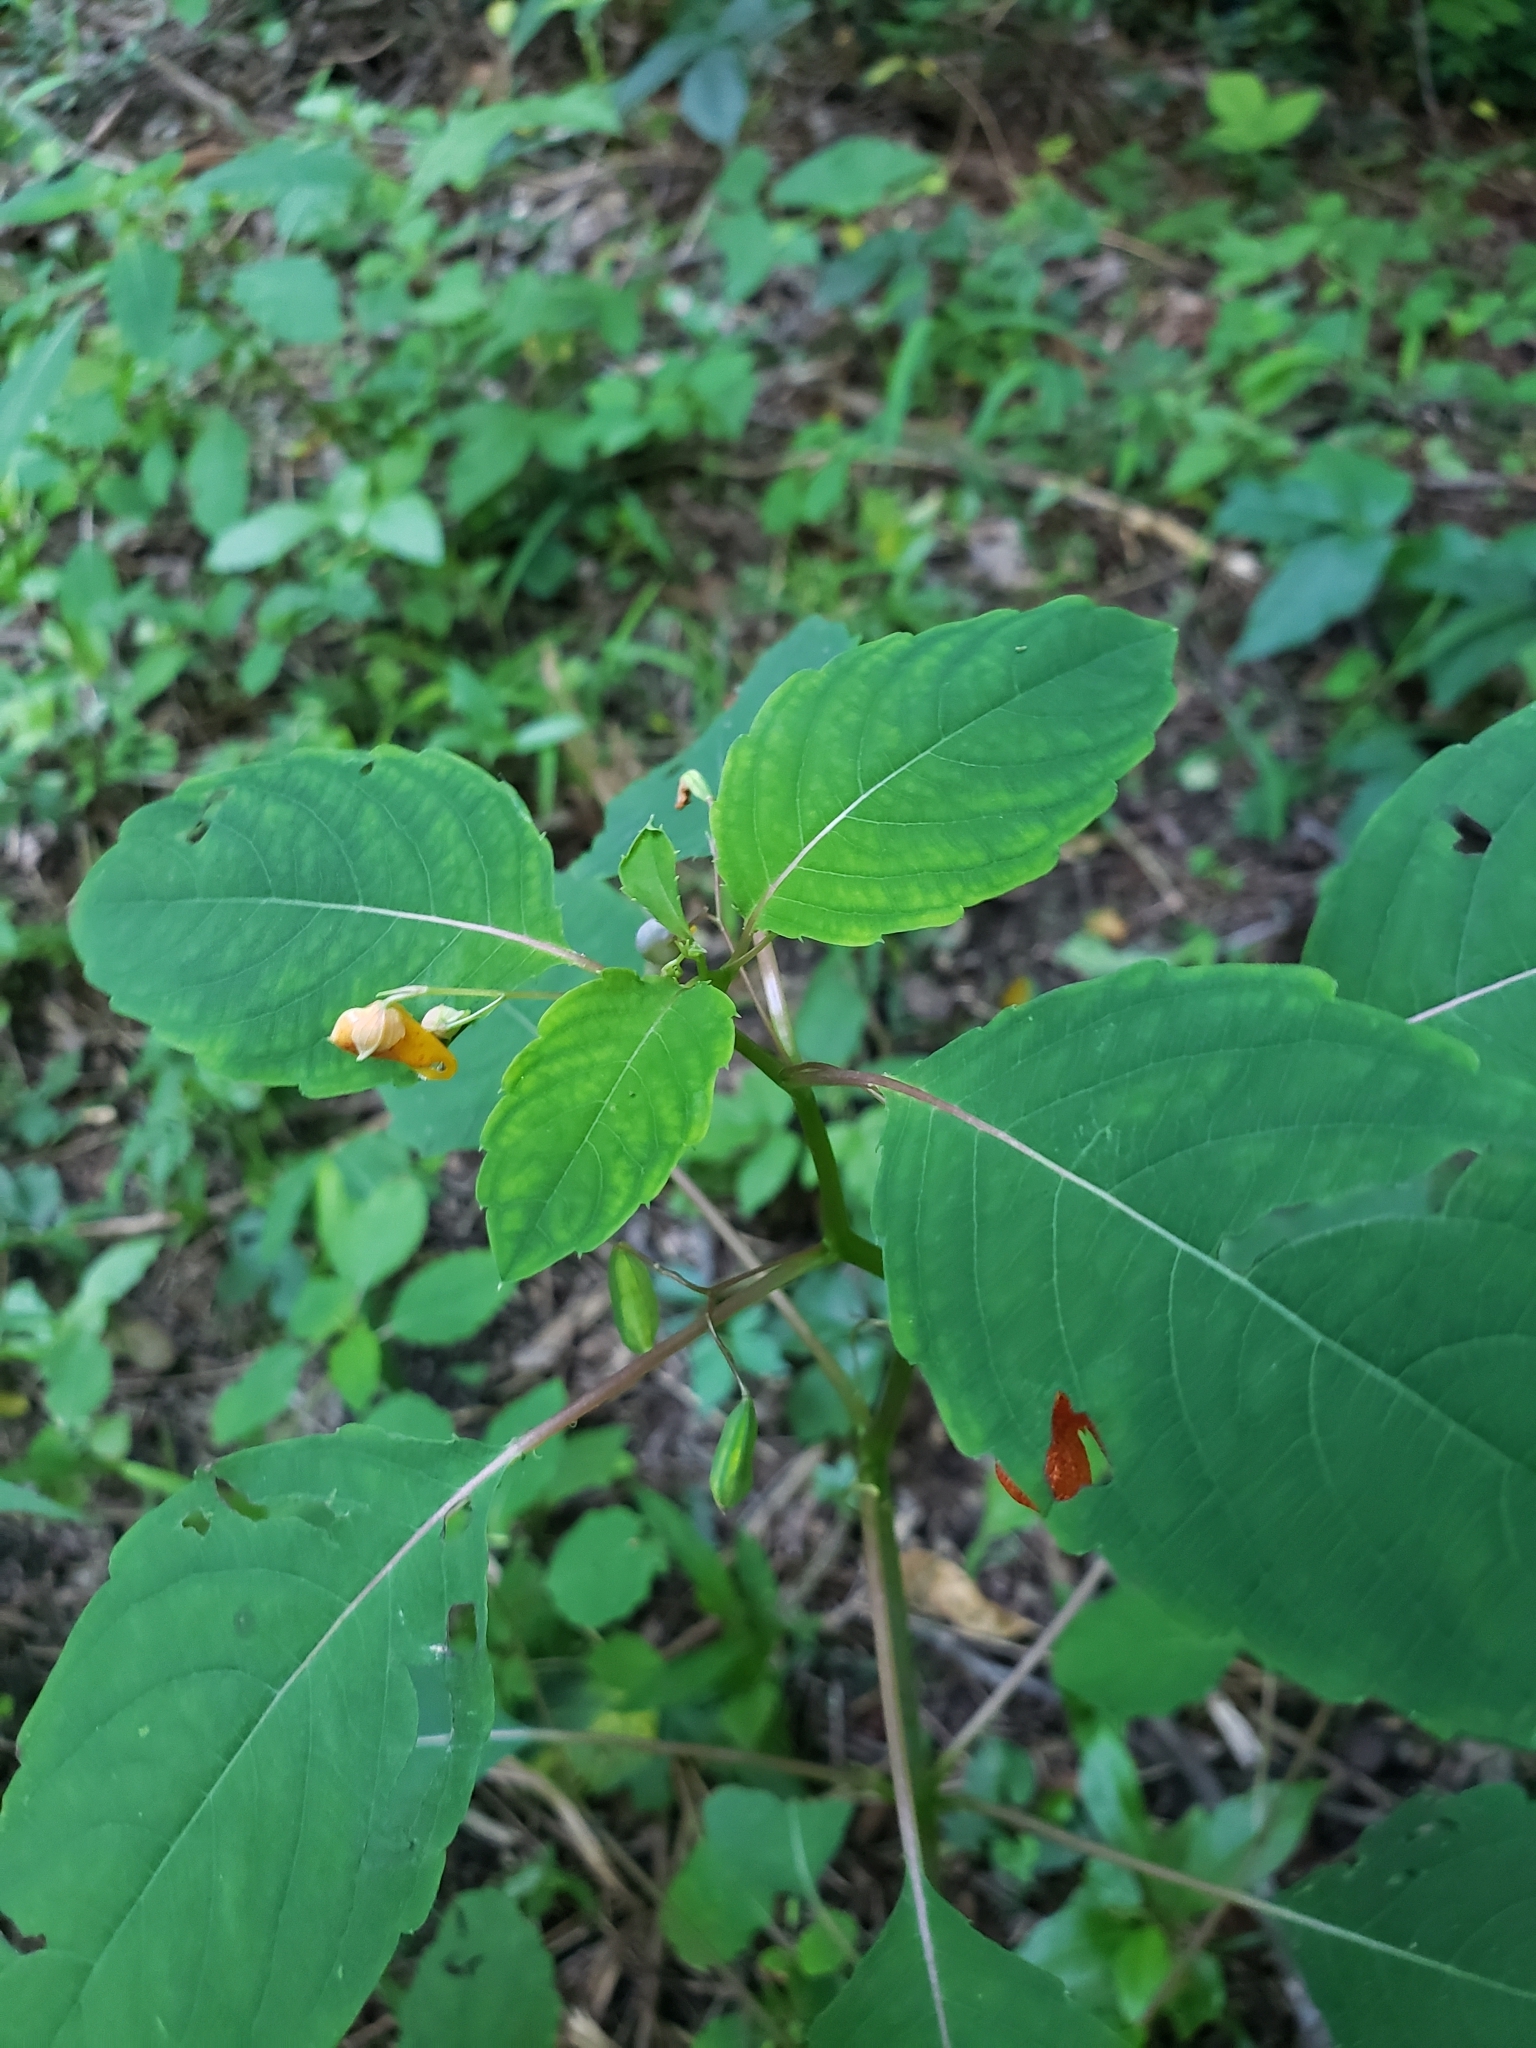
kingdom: Plantae
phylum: Tracheophyta
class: Magnoliopsida
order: Ericales
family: Balsaminaceae
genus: Impatiens
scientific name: Impatiens capensis
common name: Orange balsam
